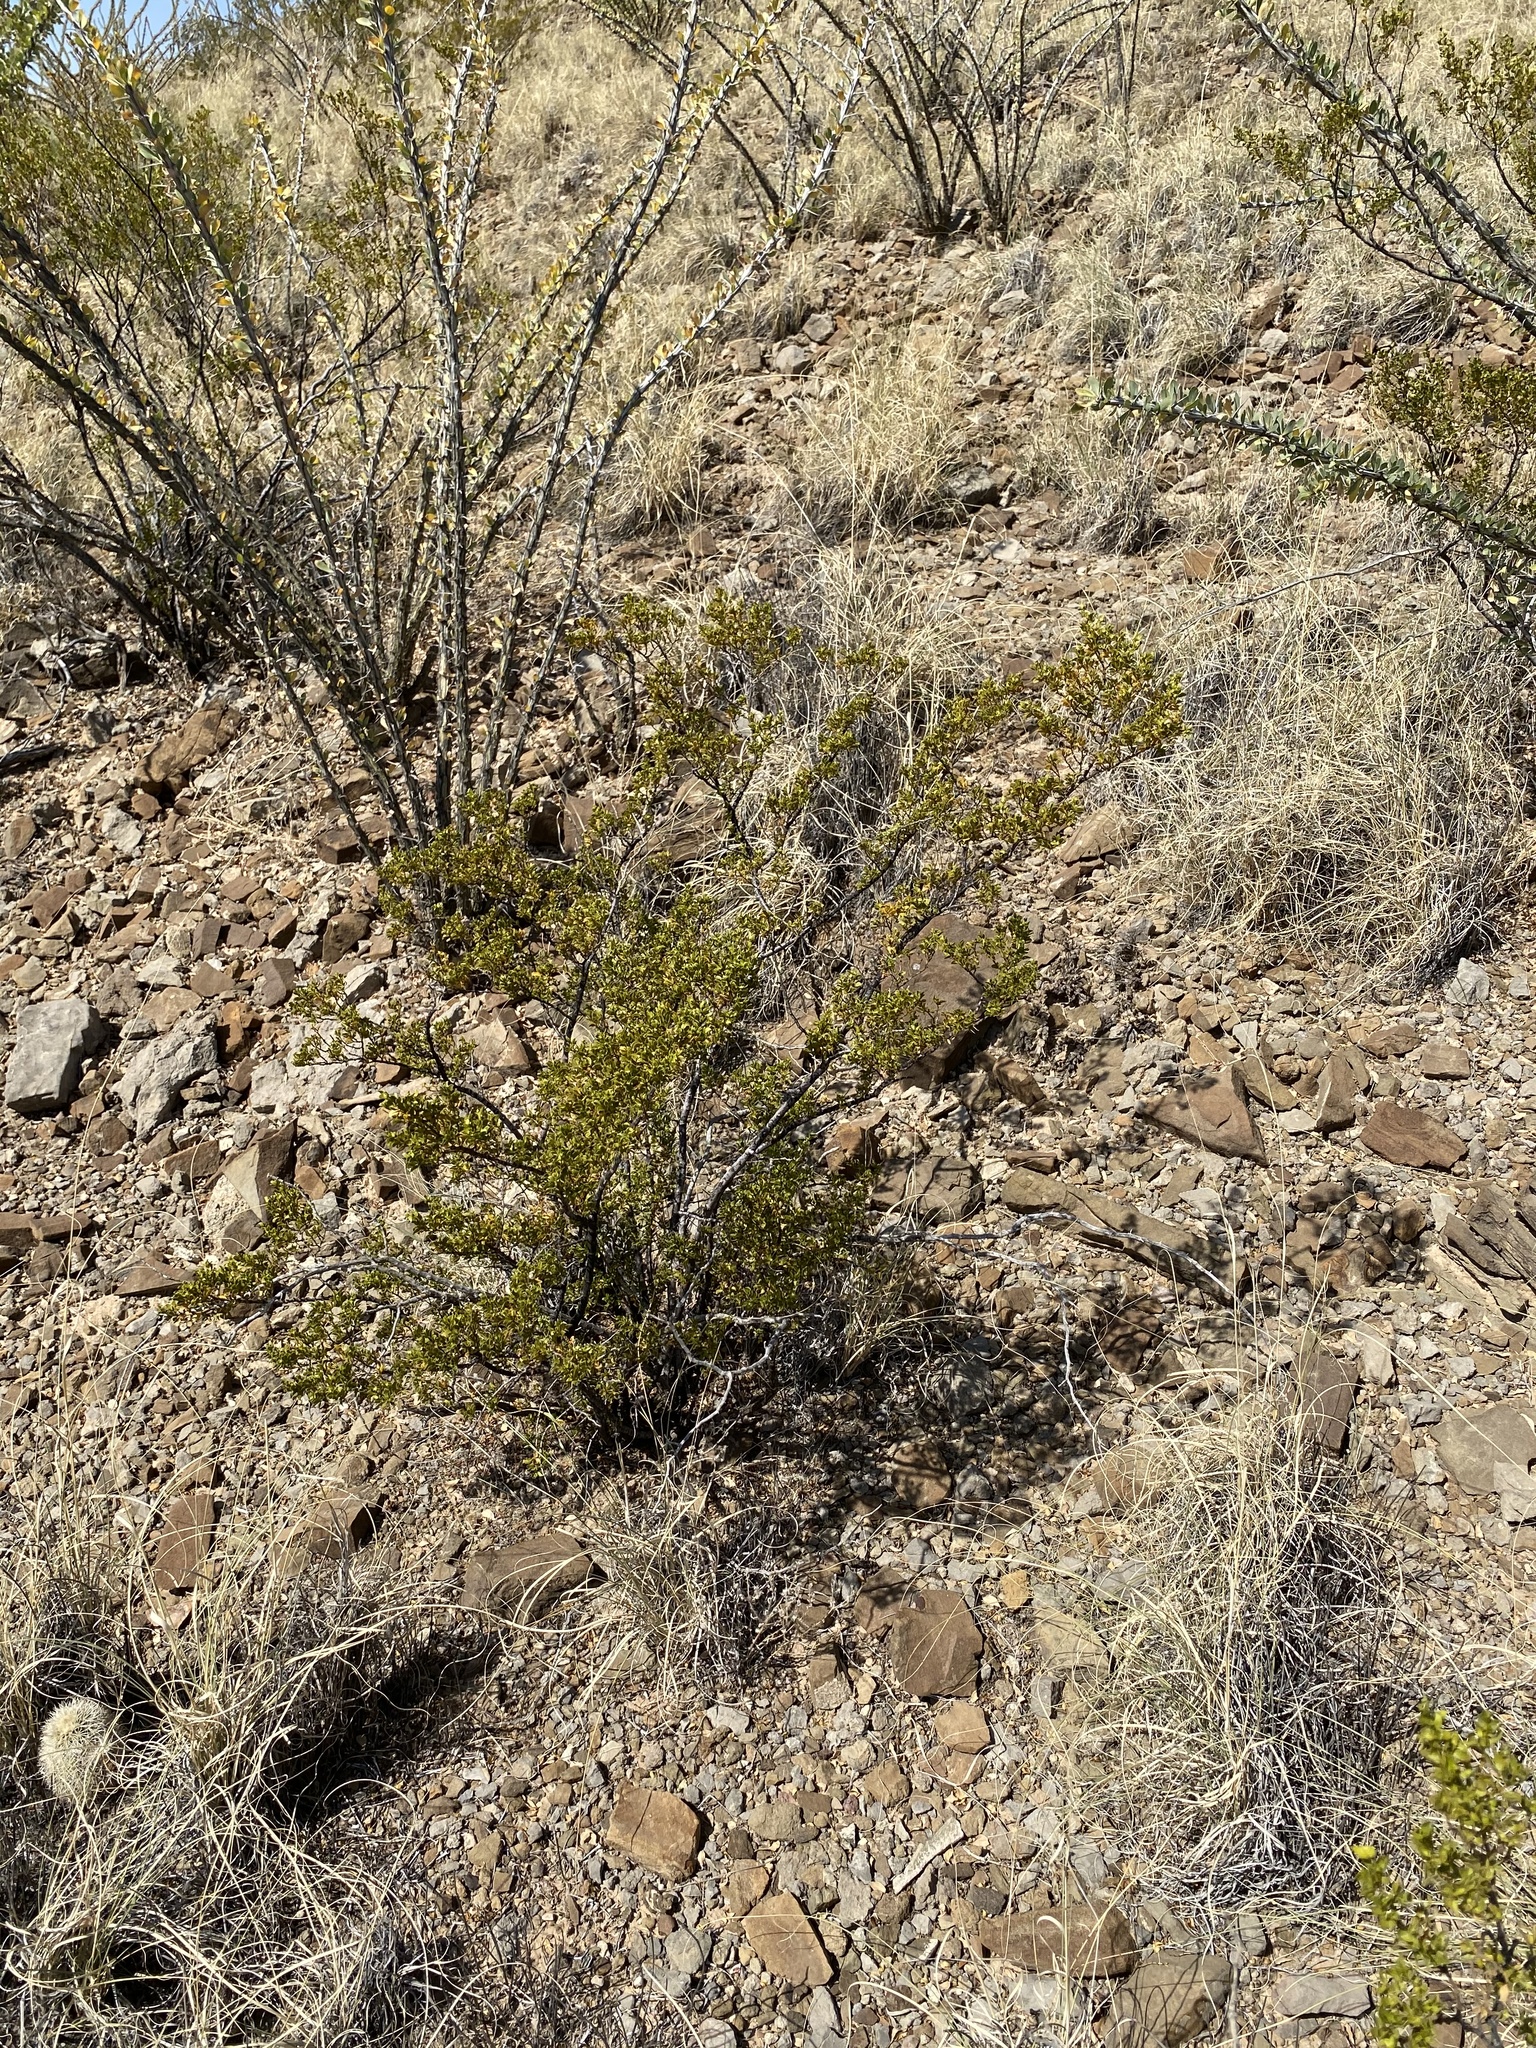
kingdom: Plantae
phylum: Tracheophyta
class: Magnoliopsida
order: Zygophyllales
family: Zygophyllaceae
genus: Larrea
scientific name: Larrea tridentata
